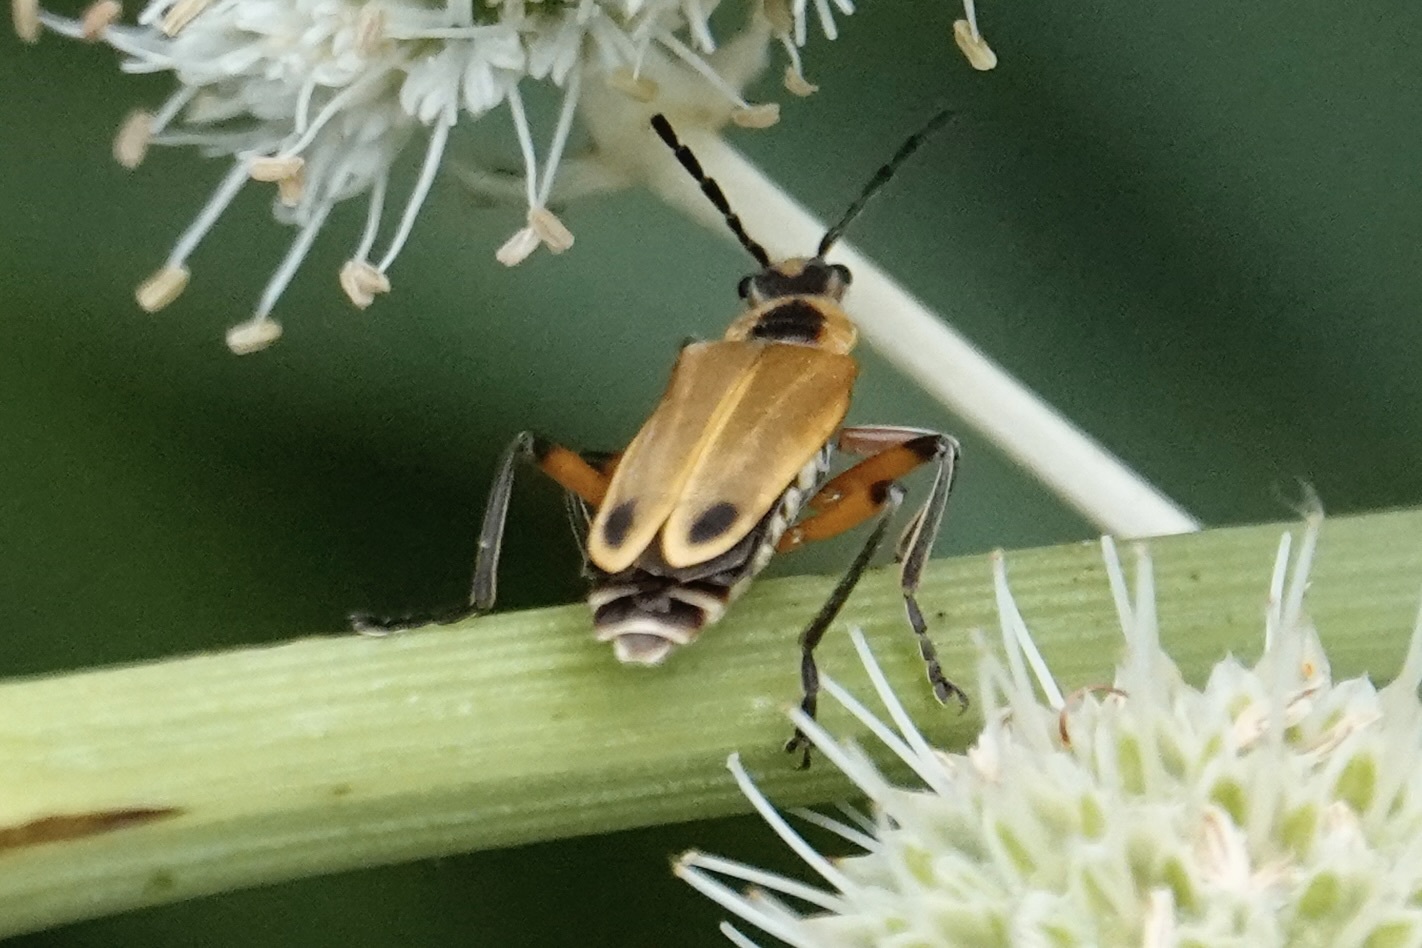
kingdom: Animalia
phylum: Arthropoda
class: Insecta
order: Coleoptera
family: Cantharidae
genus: Chauliognathus
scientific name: Chauliognathus marginatus
